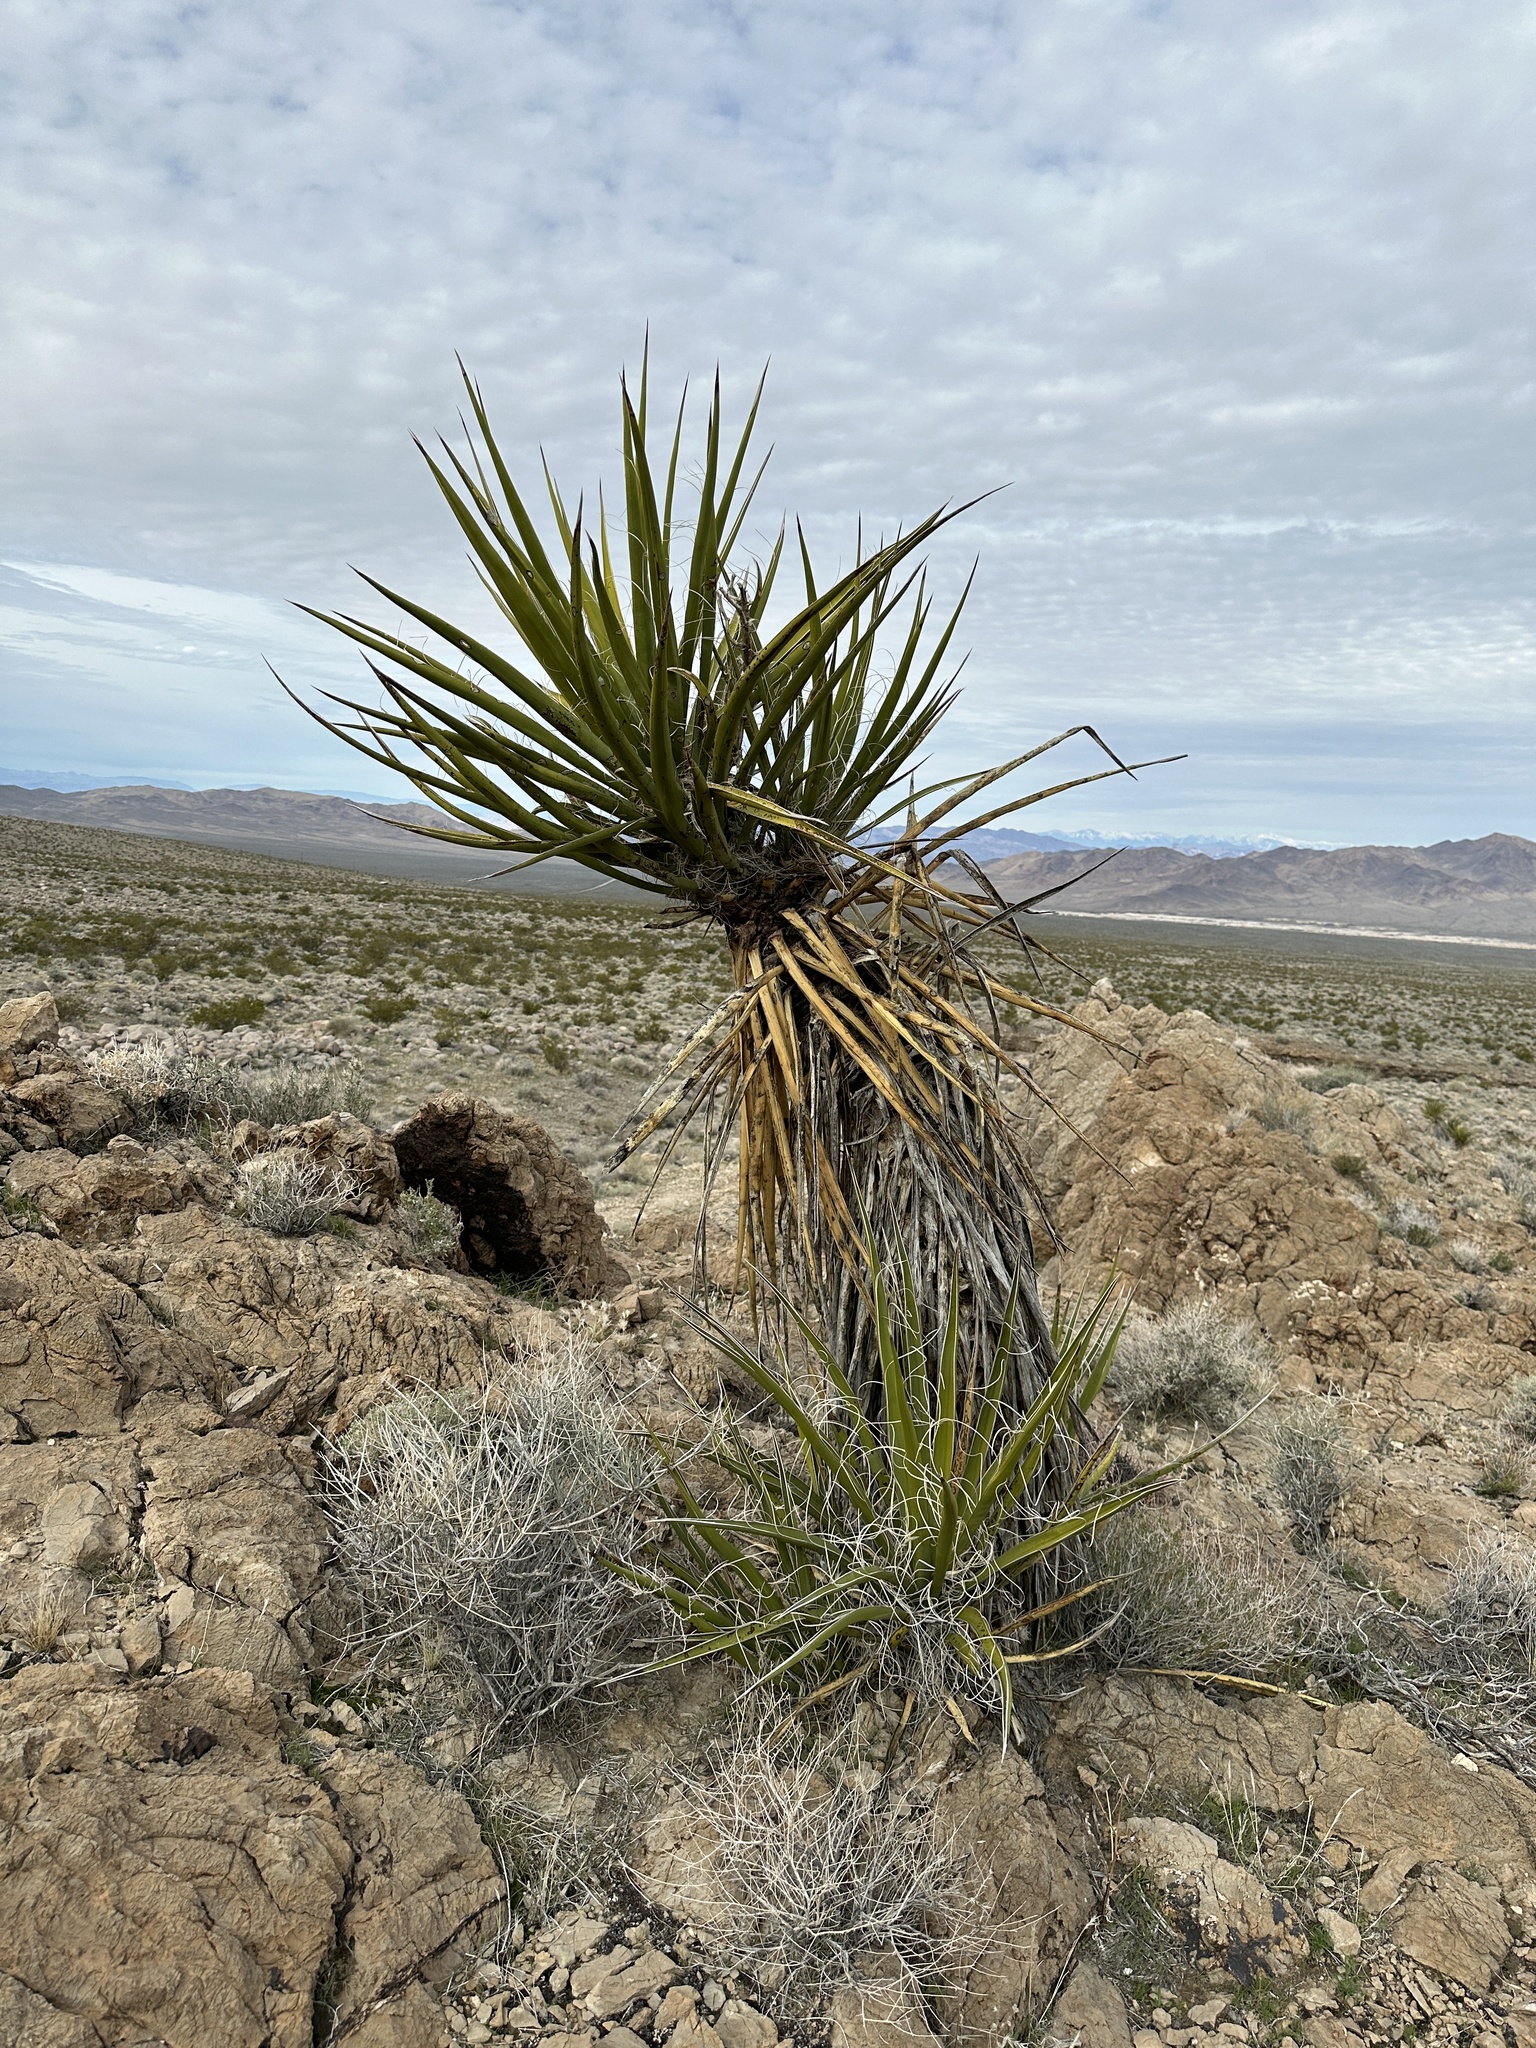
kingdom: Plantae
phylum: Tracheophyta
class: Liliopsida
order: Asparagales
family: Asparagaceae
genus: Yucca
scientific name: Yucca schidigera
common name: Mojave yucca
